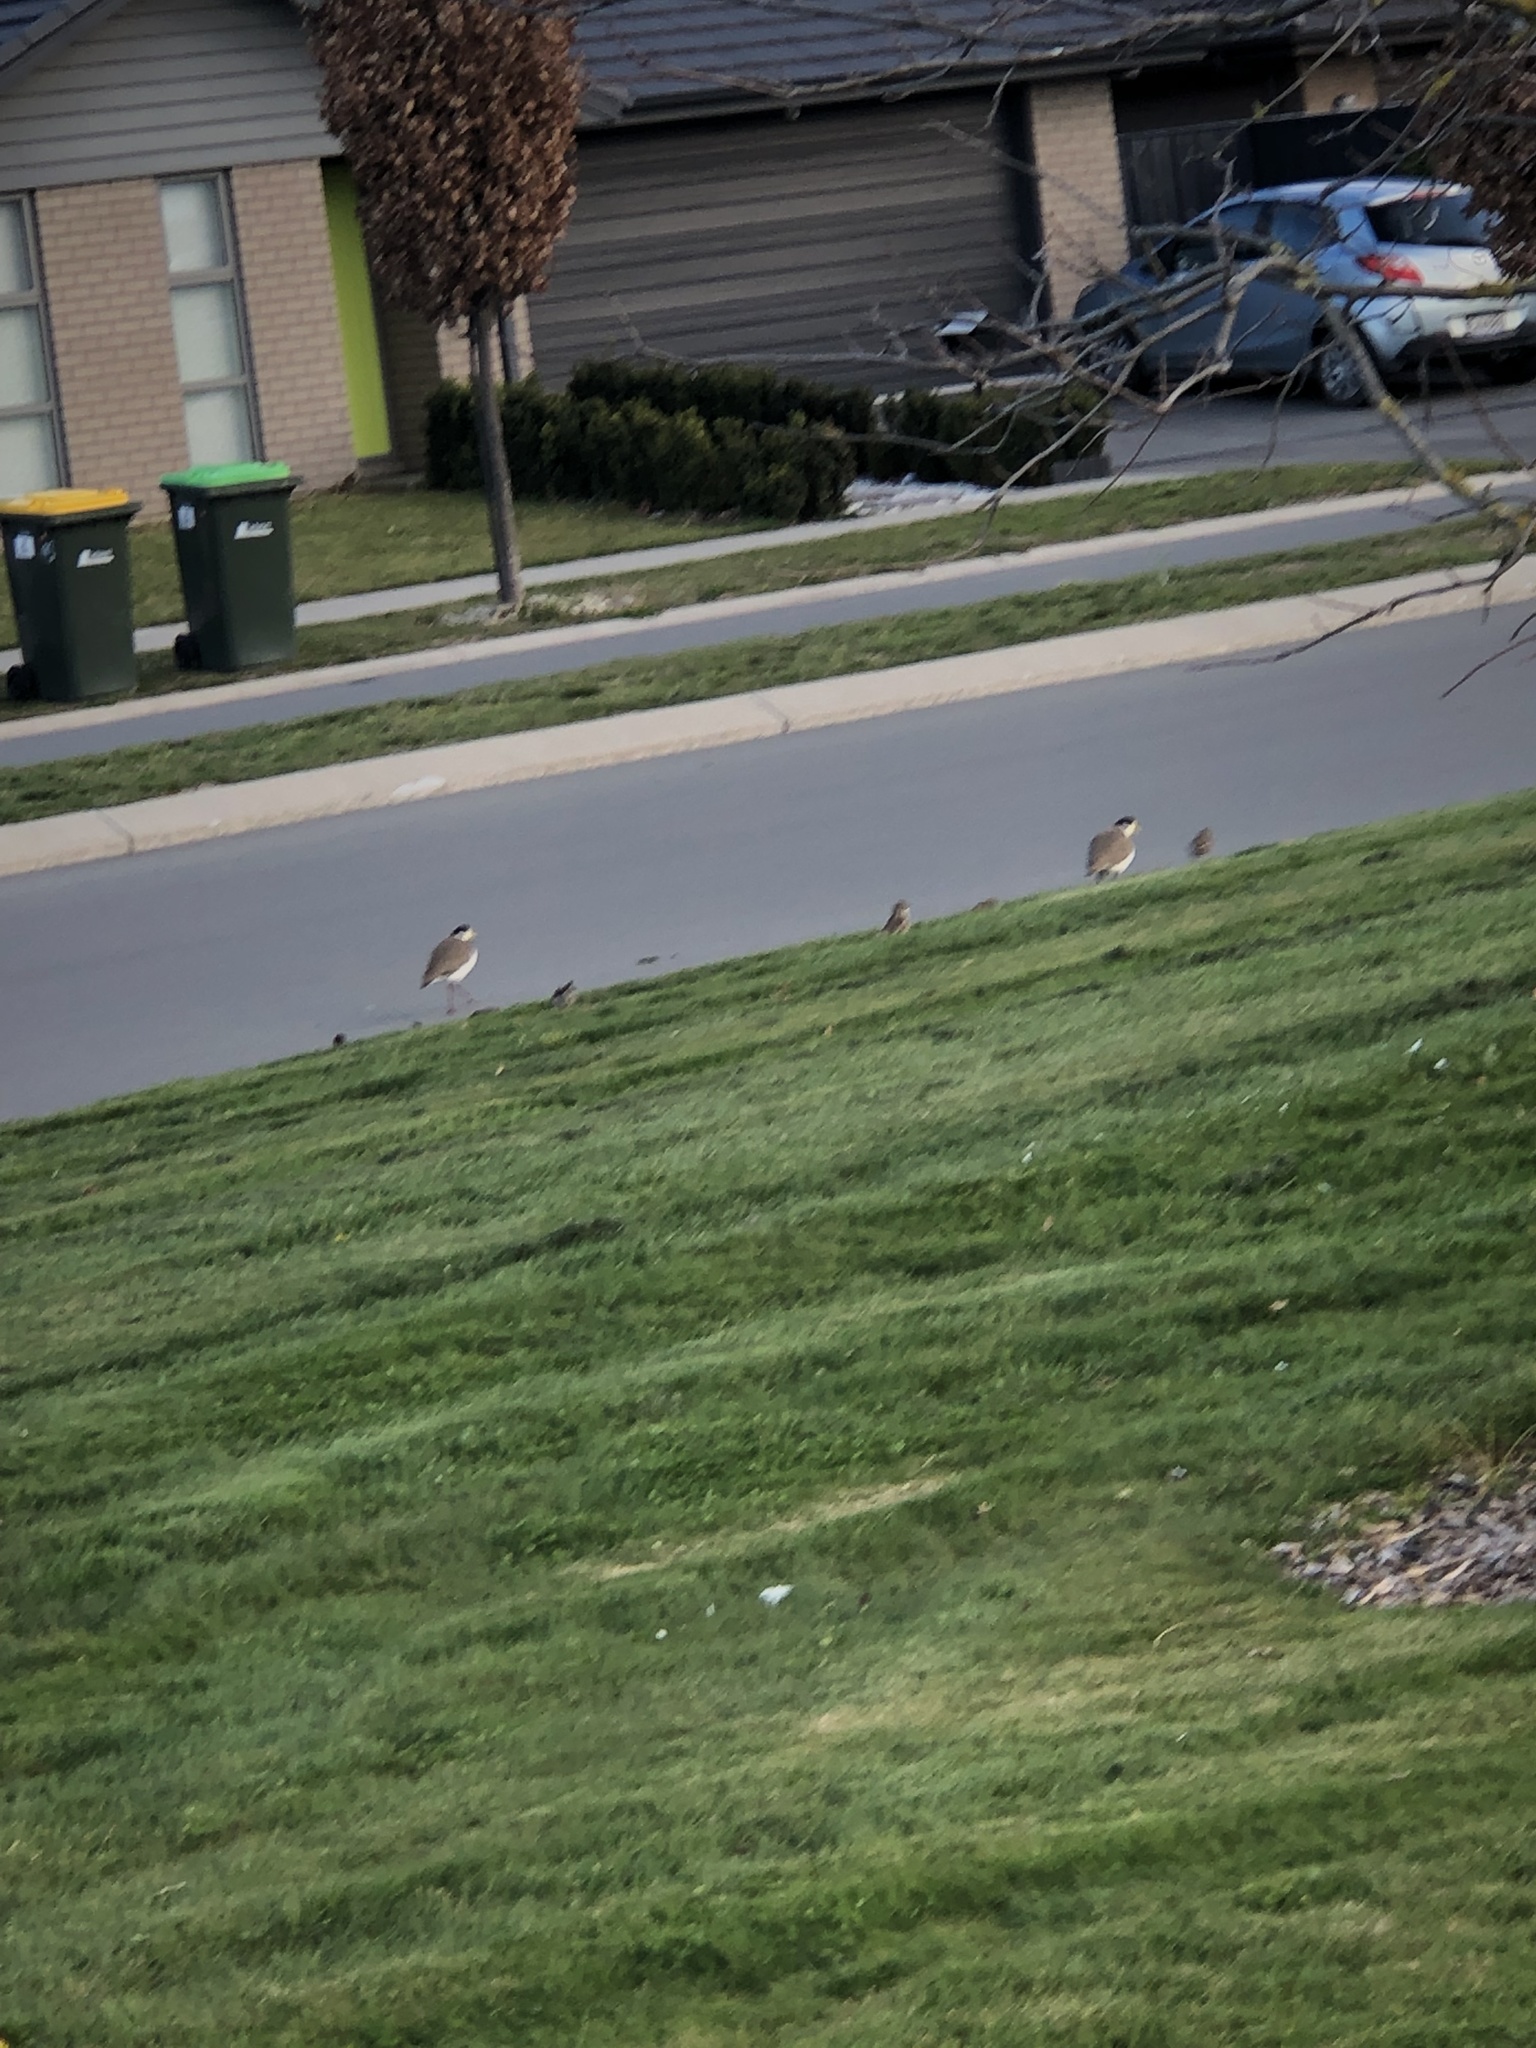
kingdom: Animalia
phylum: Chordata
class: Aves
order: Charadriiformes
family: Charadriidae
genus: Vanellus
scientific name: Vanellus miles
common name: Masked lapwing
